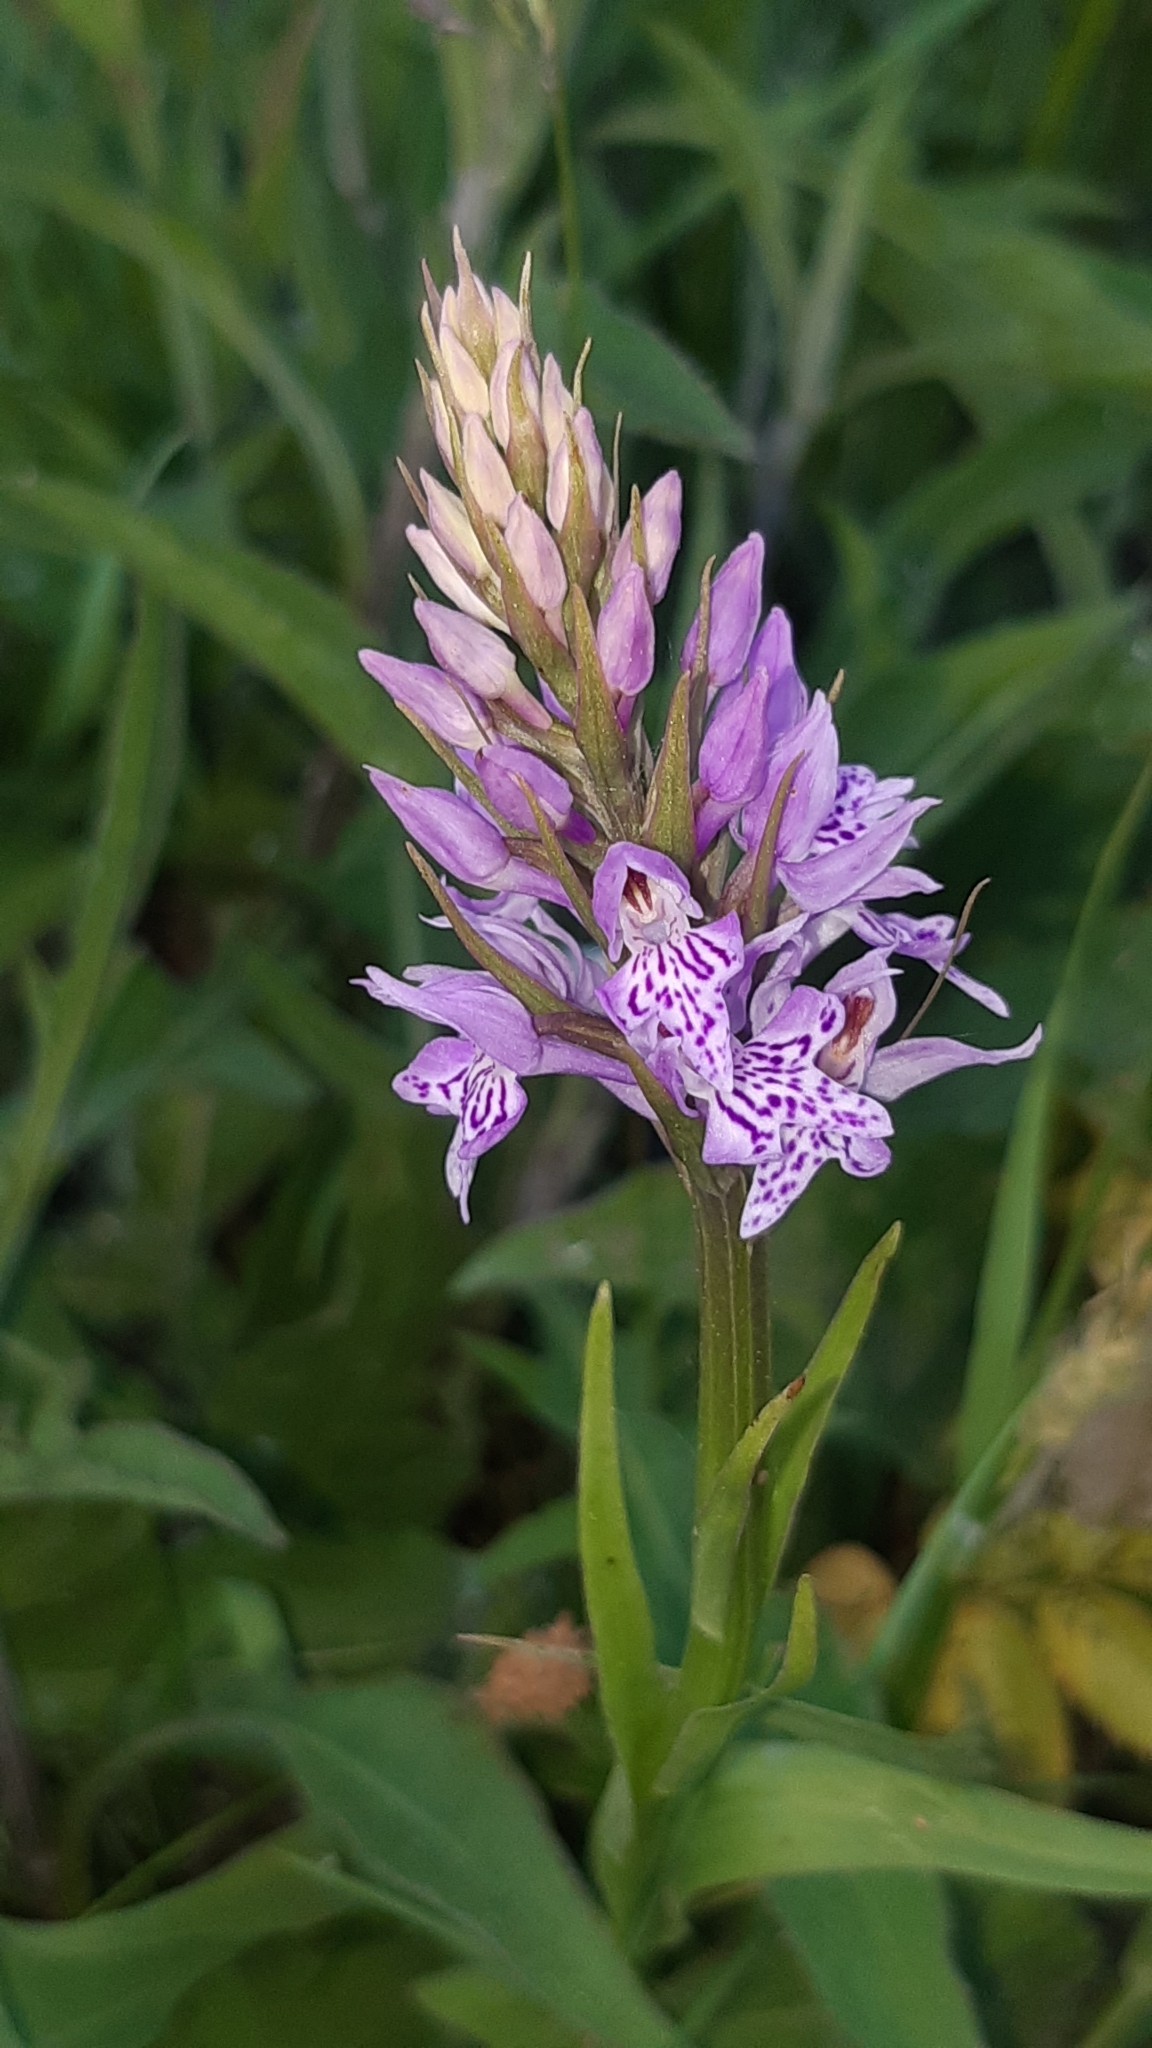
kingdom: Plantae
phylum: Tracheophyta
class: Liliopsida
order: Asparagales
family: Orchidaceae
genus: Dactylorhiza
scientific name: Dactylorhiza maculata
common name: Heath spotted-orchid
